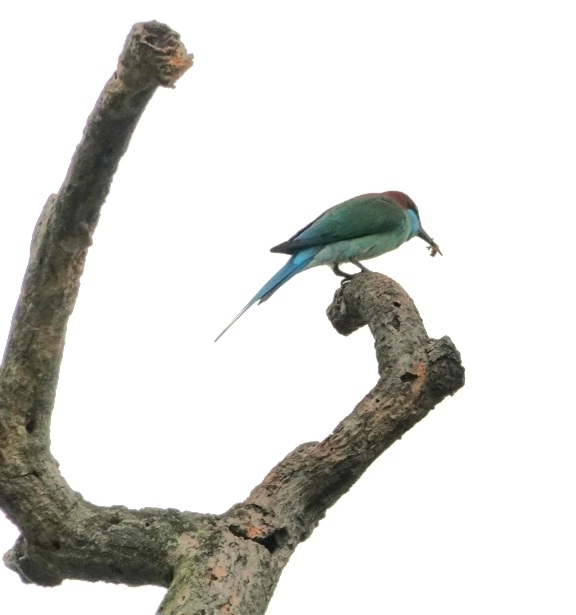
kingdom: Animalia
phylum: Chordata
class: Aves
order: Coraciiformes
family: Meropidae
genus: Merops
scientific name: Merops viridis
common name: Blue-throated bee-eater
